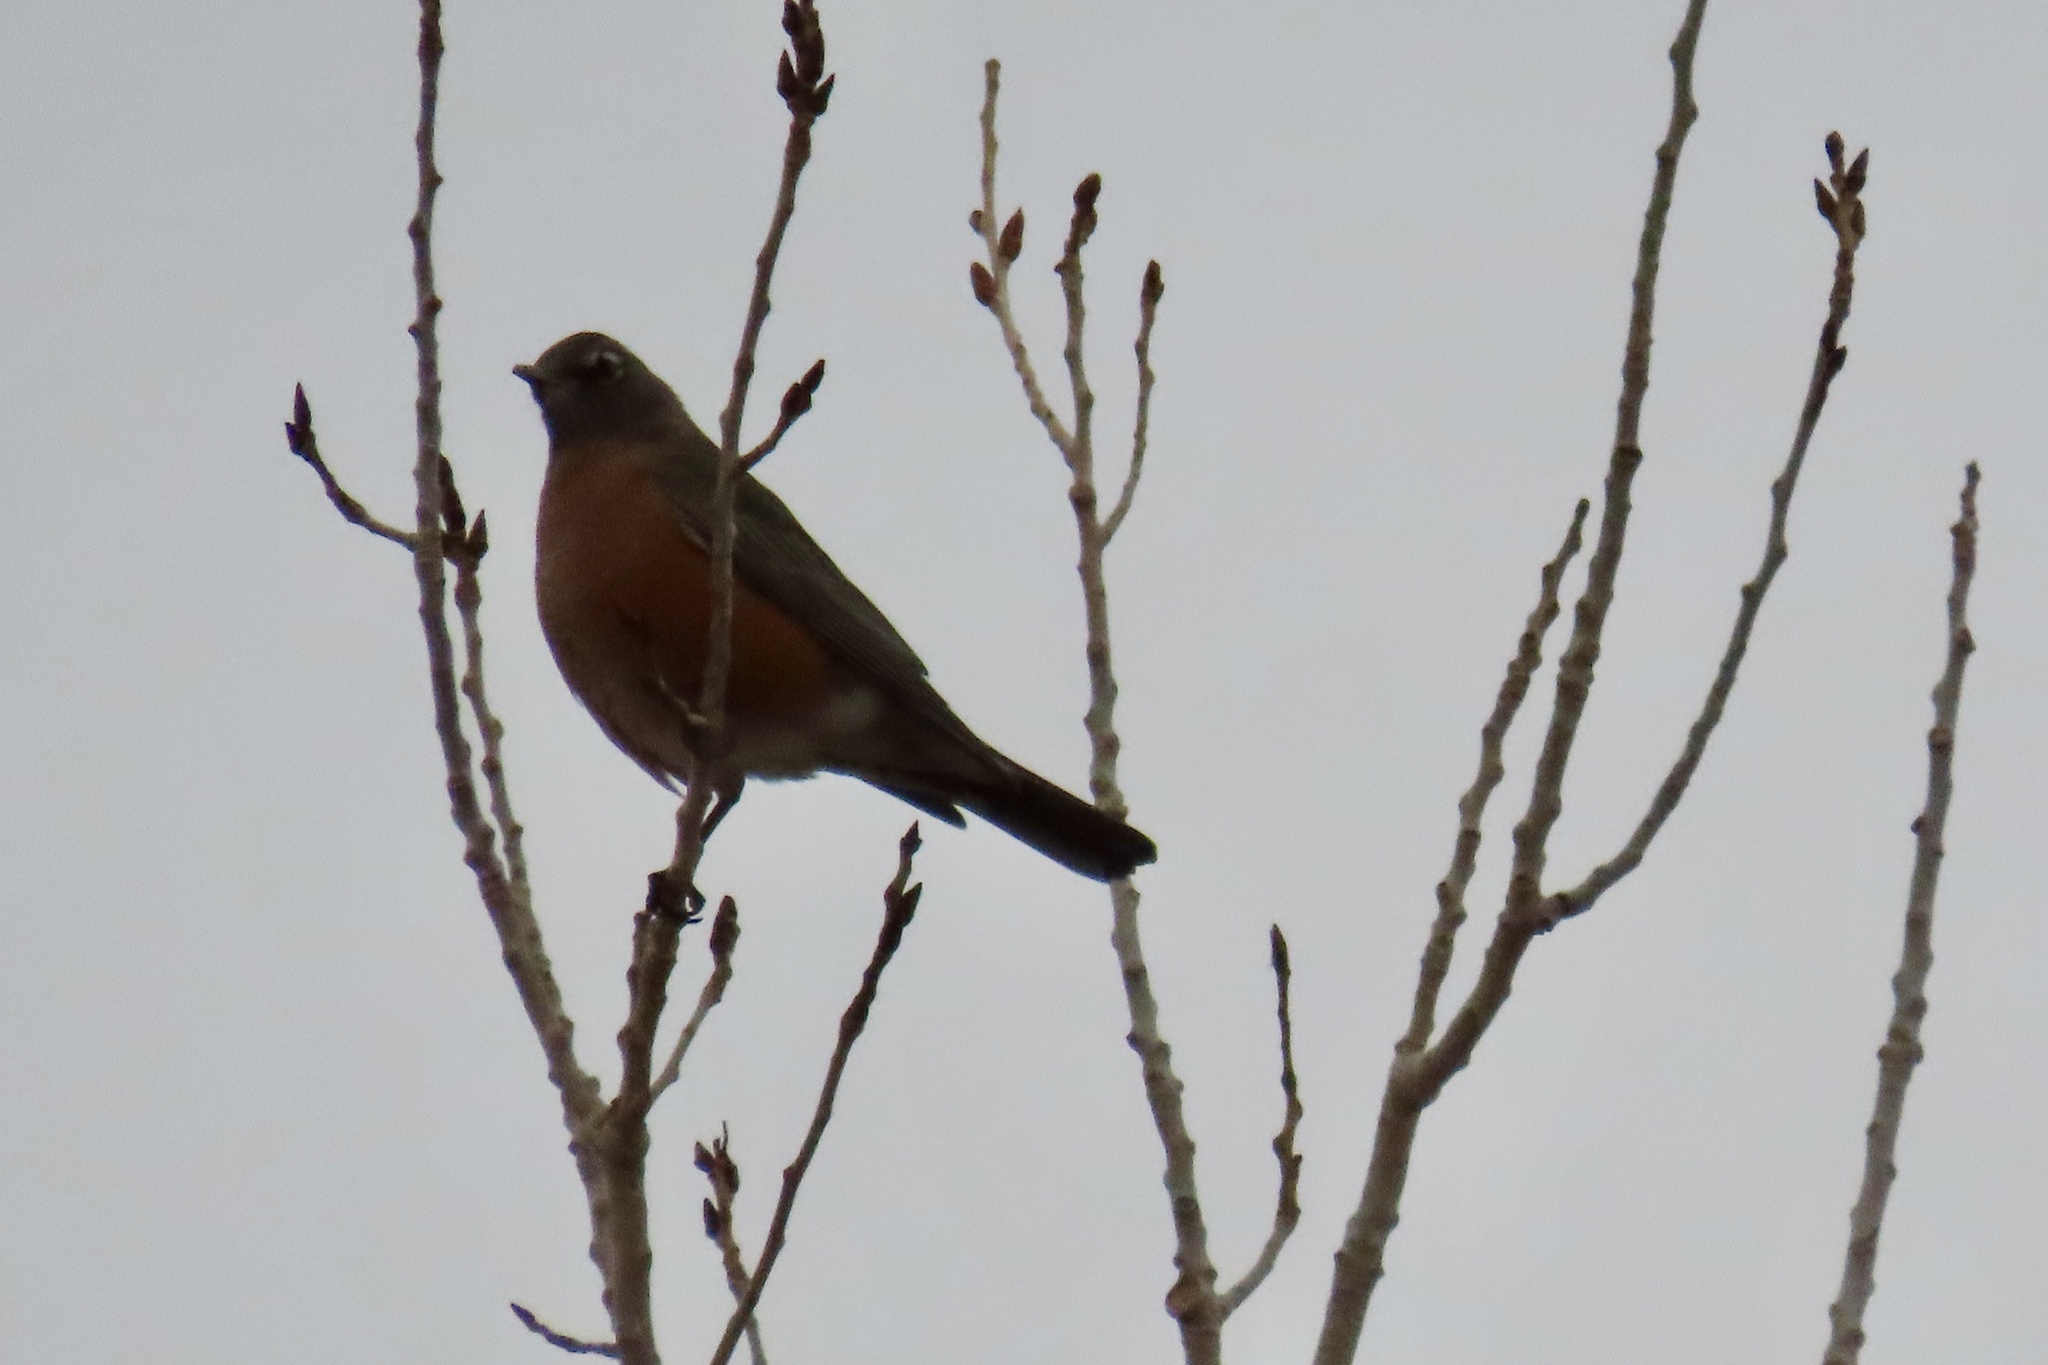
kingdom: Animalia
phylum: Chordata
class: Aves
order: Passeriformes
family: Turdidae
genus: Turdus
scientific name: Turdus migratorius
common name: American robin
